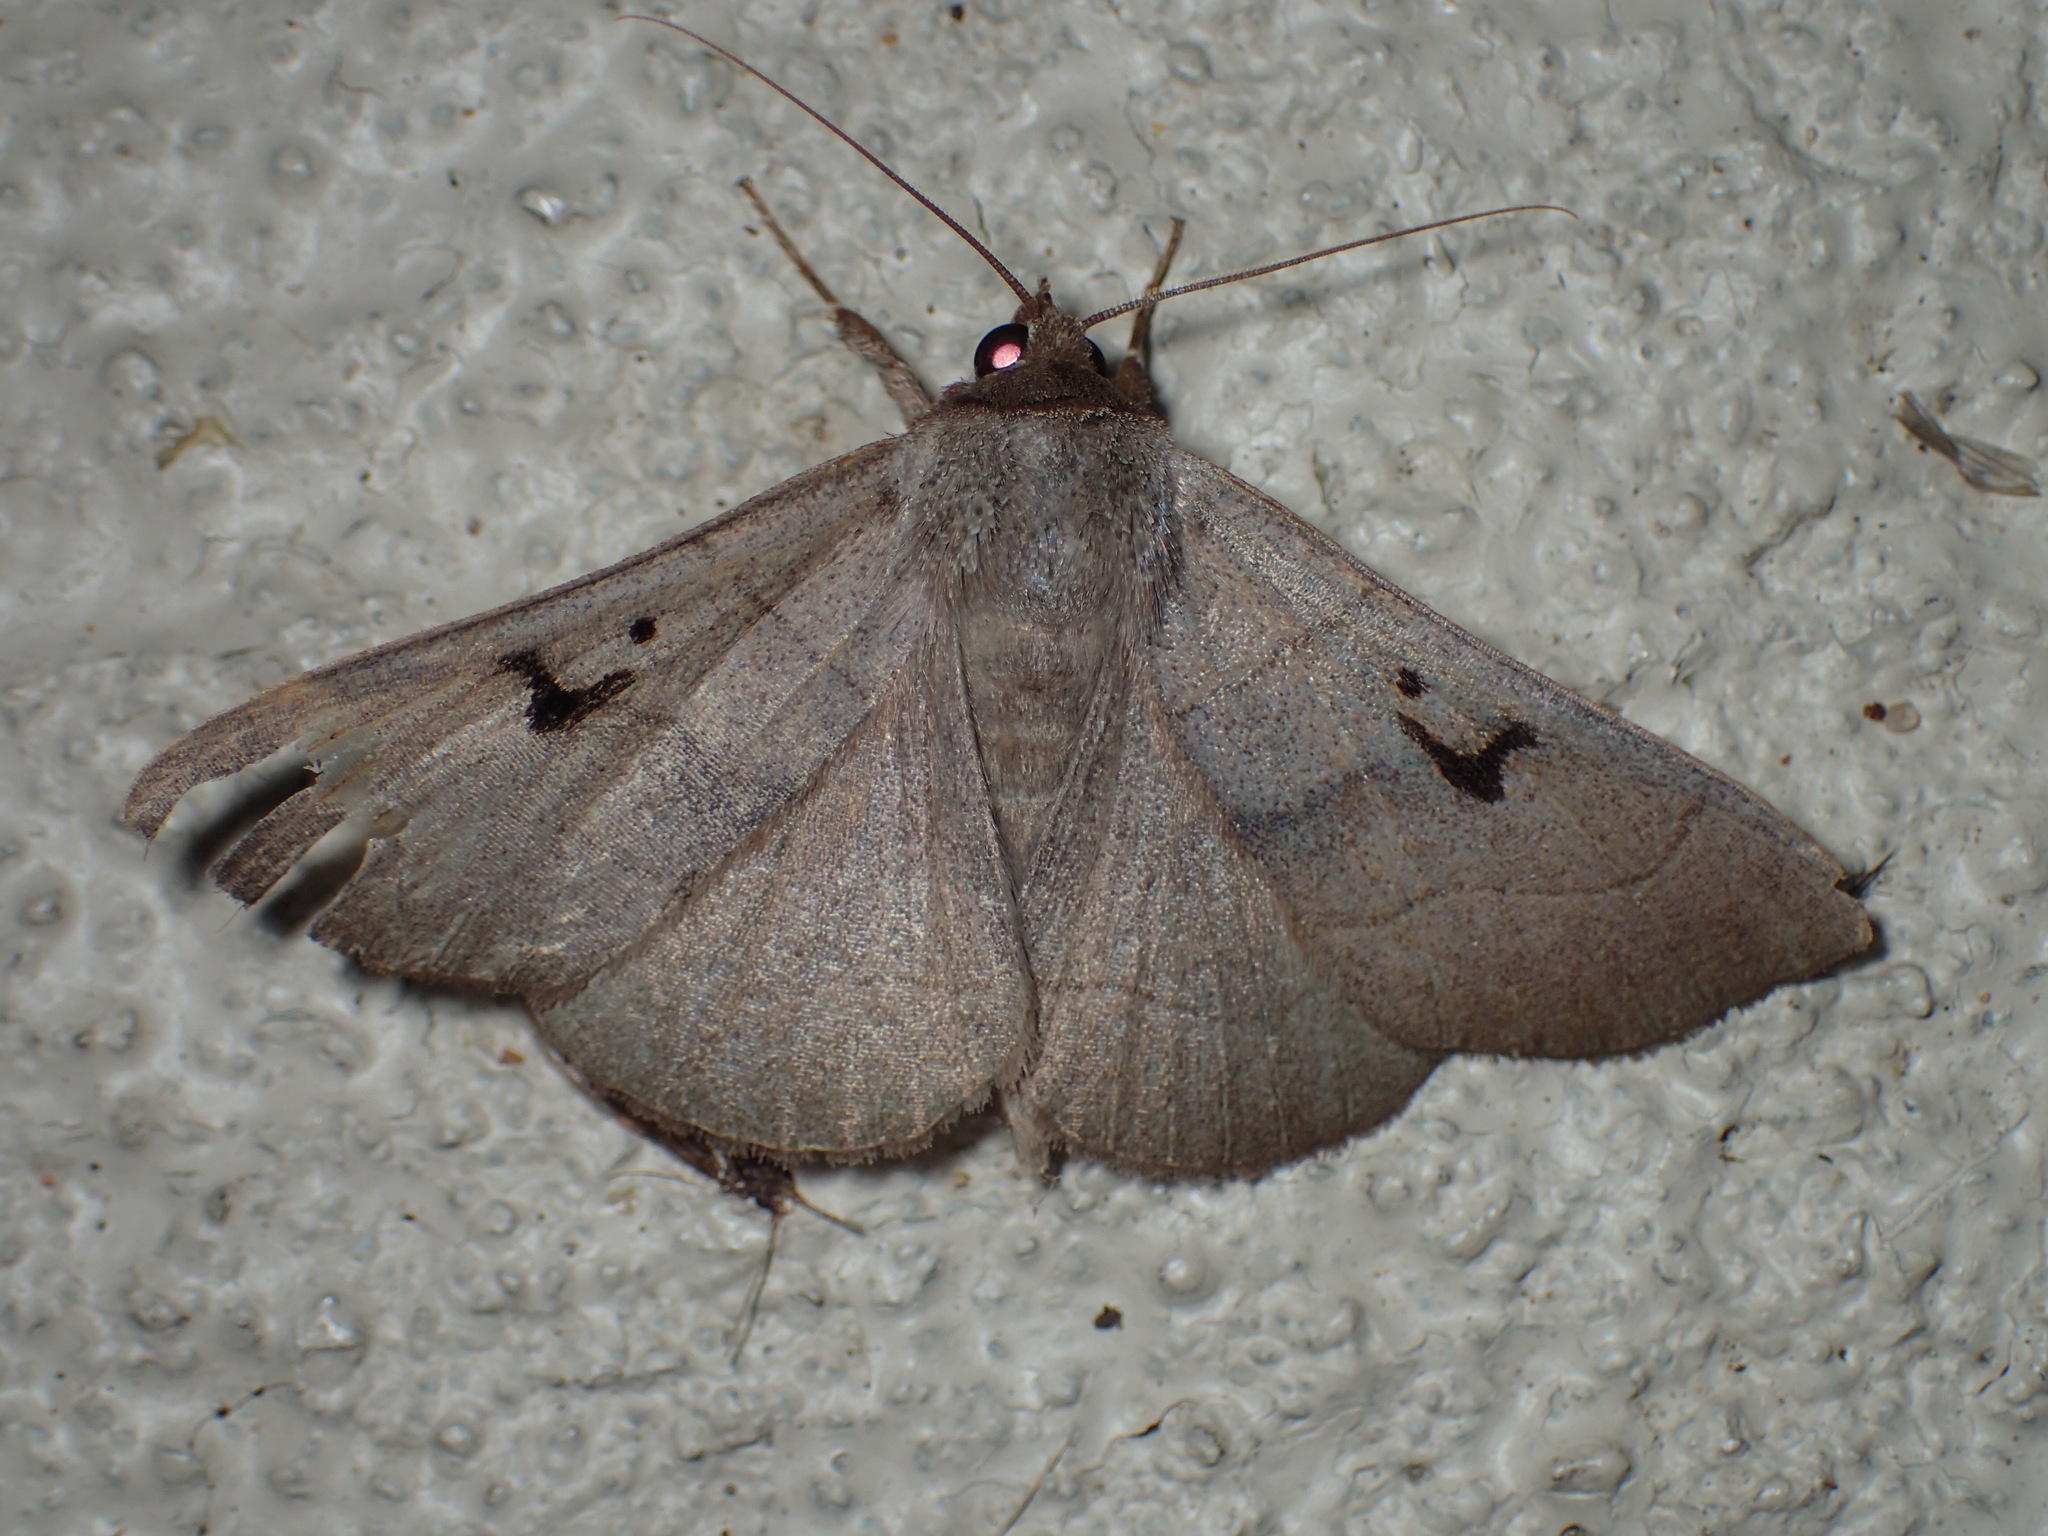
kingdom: Animalia
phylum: Arthropoda
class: Insecta
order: Lepidoptera
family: Erebidae
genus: Panopoda
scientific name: Panopoda carneicosta
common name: Brown panopoda moth
